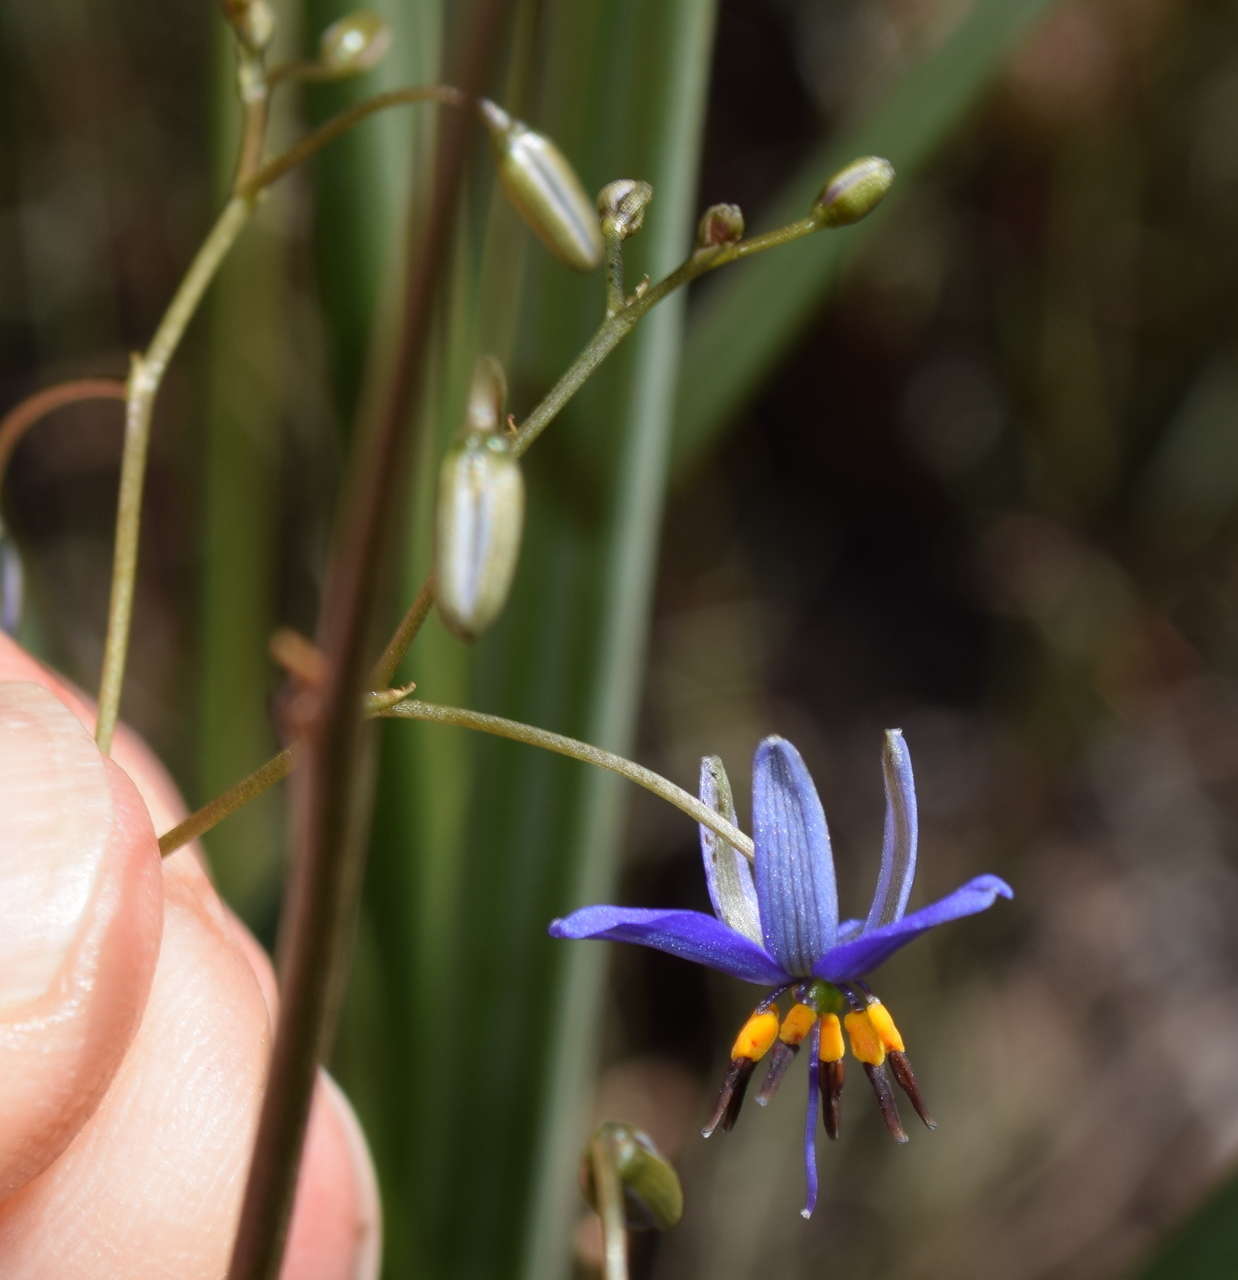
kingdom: Plantae
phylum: Tracheophyta
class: Liliopsida
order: Asparagales
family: Asphodelaceae
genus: Dianella
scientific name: Dianella revoluta
